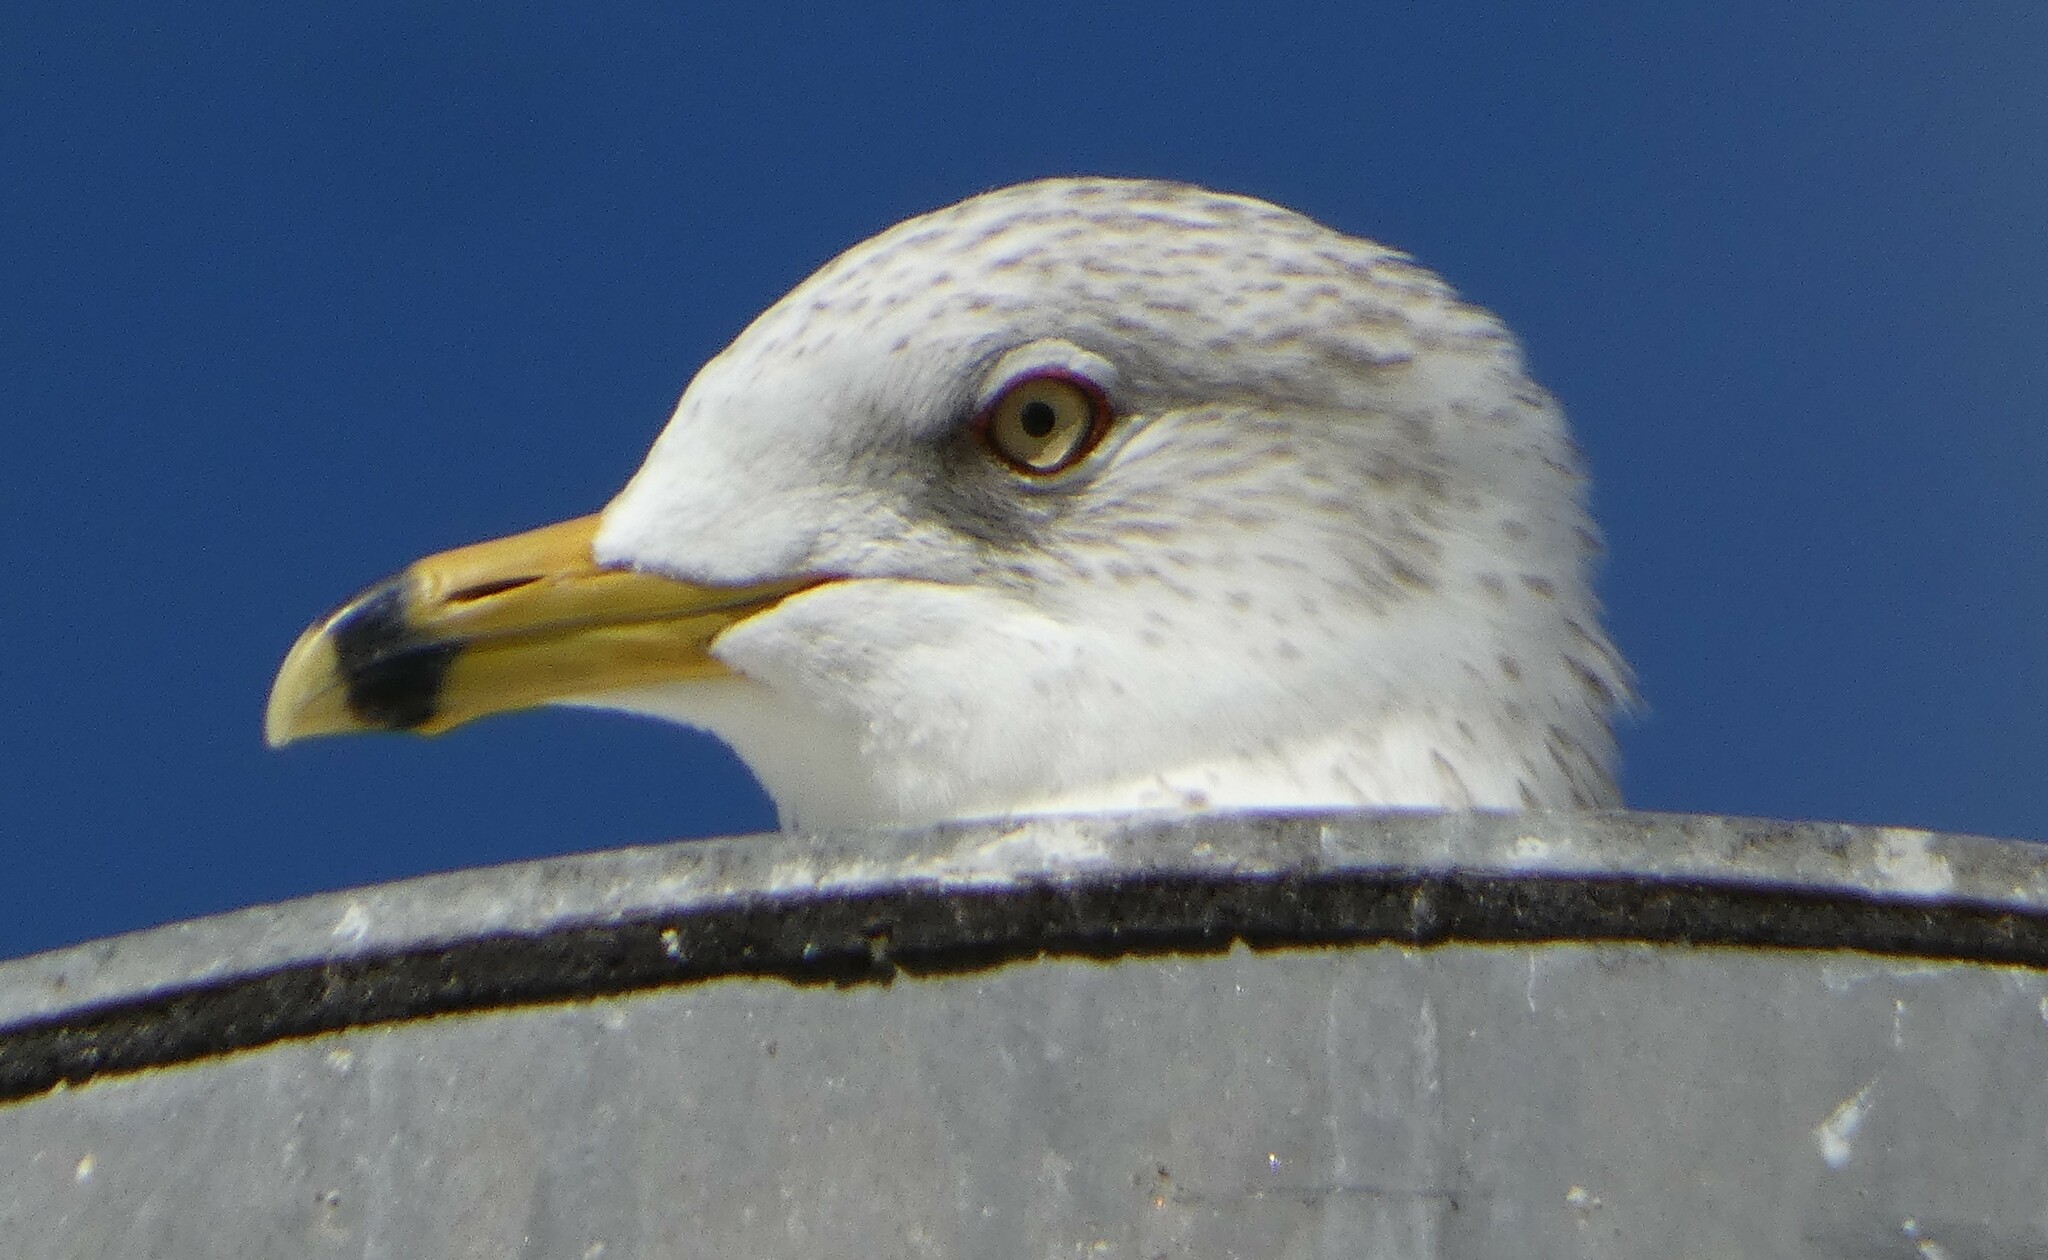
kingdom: Animalia
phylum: Chordata
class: Aves
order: Charadriiformes
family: Laridae
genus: Larus
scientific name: Larus delawarensis
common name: Ring-billed gull
